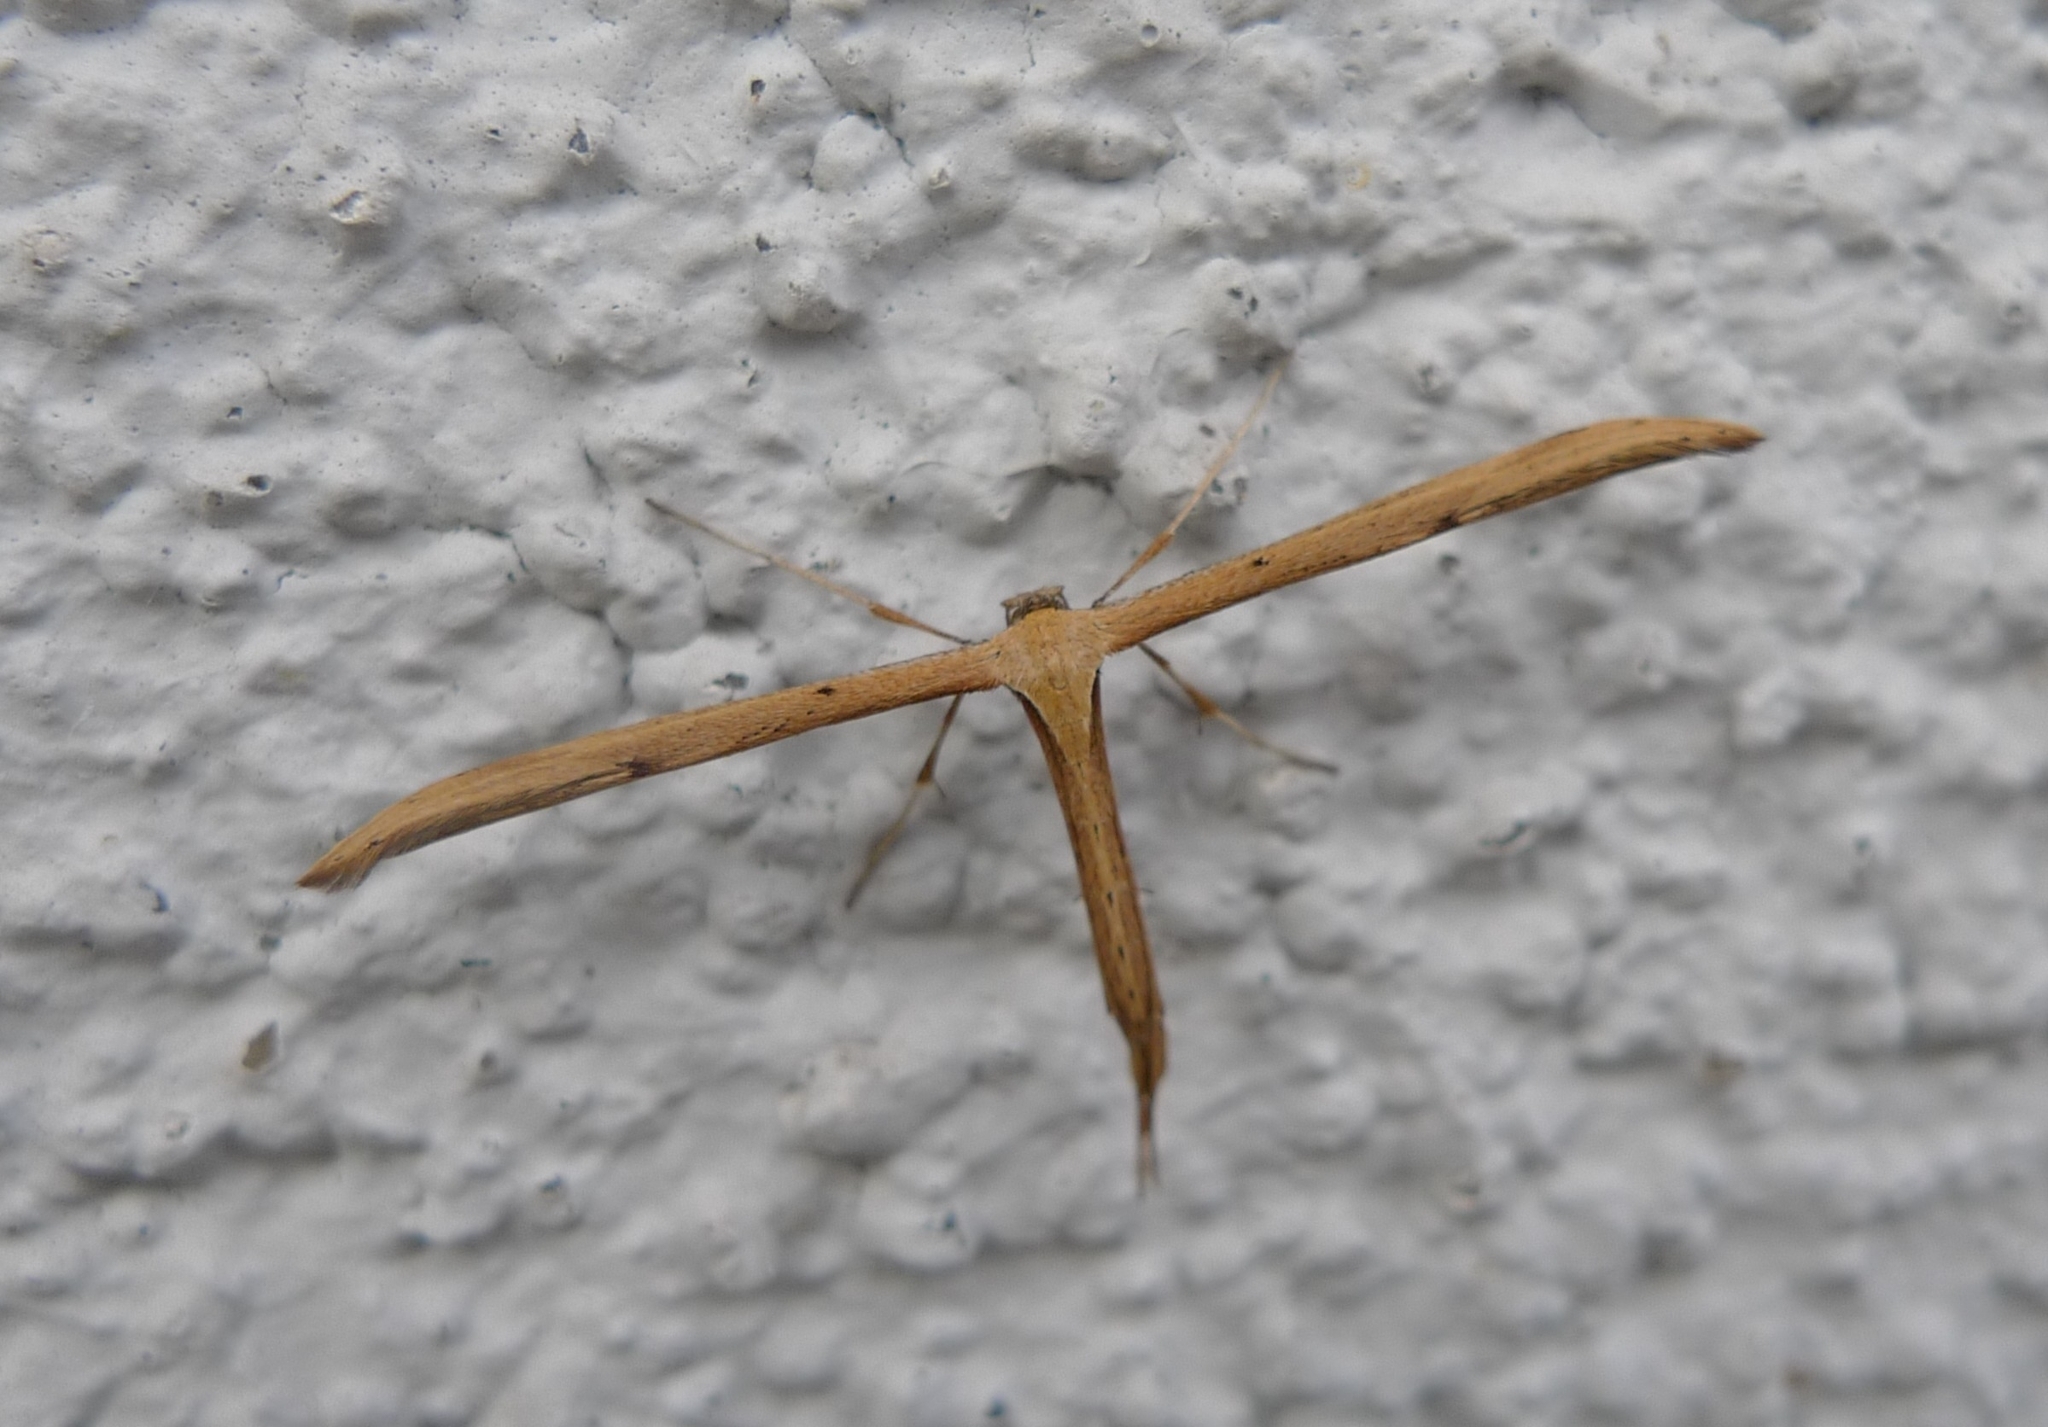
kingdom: Animalia
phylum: Arthropoda
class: Insecta
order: Lepidoptera
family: Pterophoridae
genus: Emmelina
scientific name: Emmelina monodactyla
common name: Common plume
